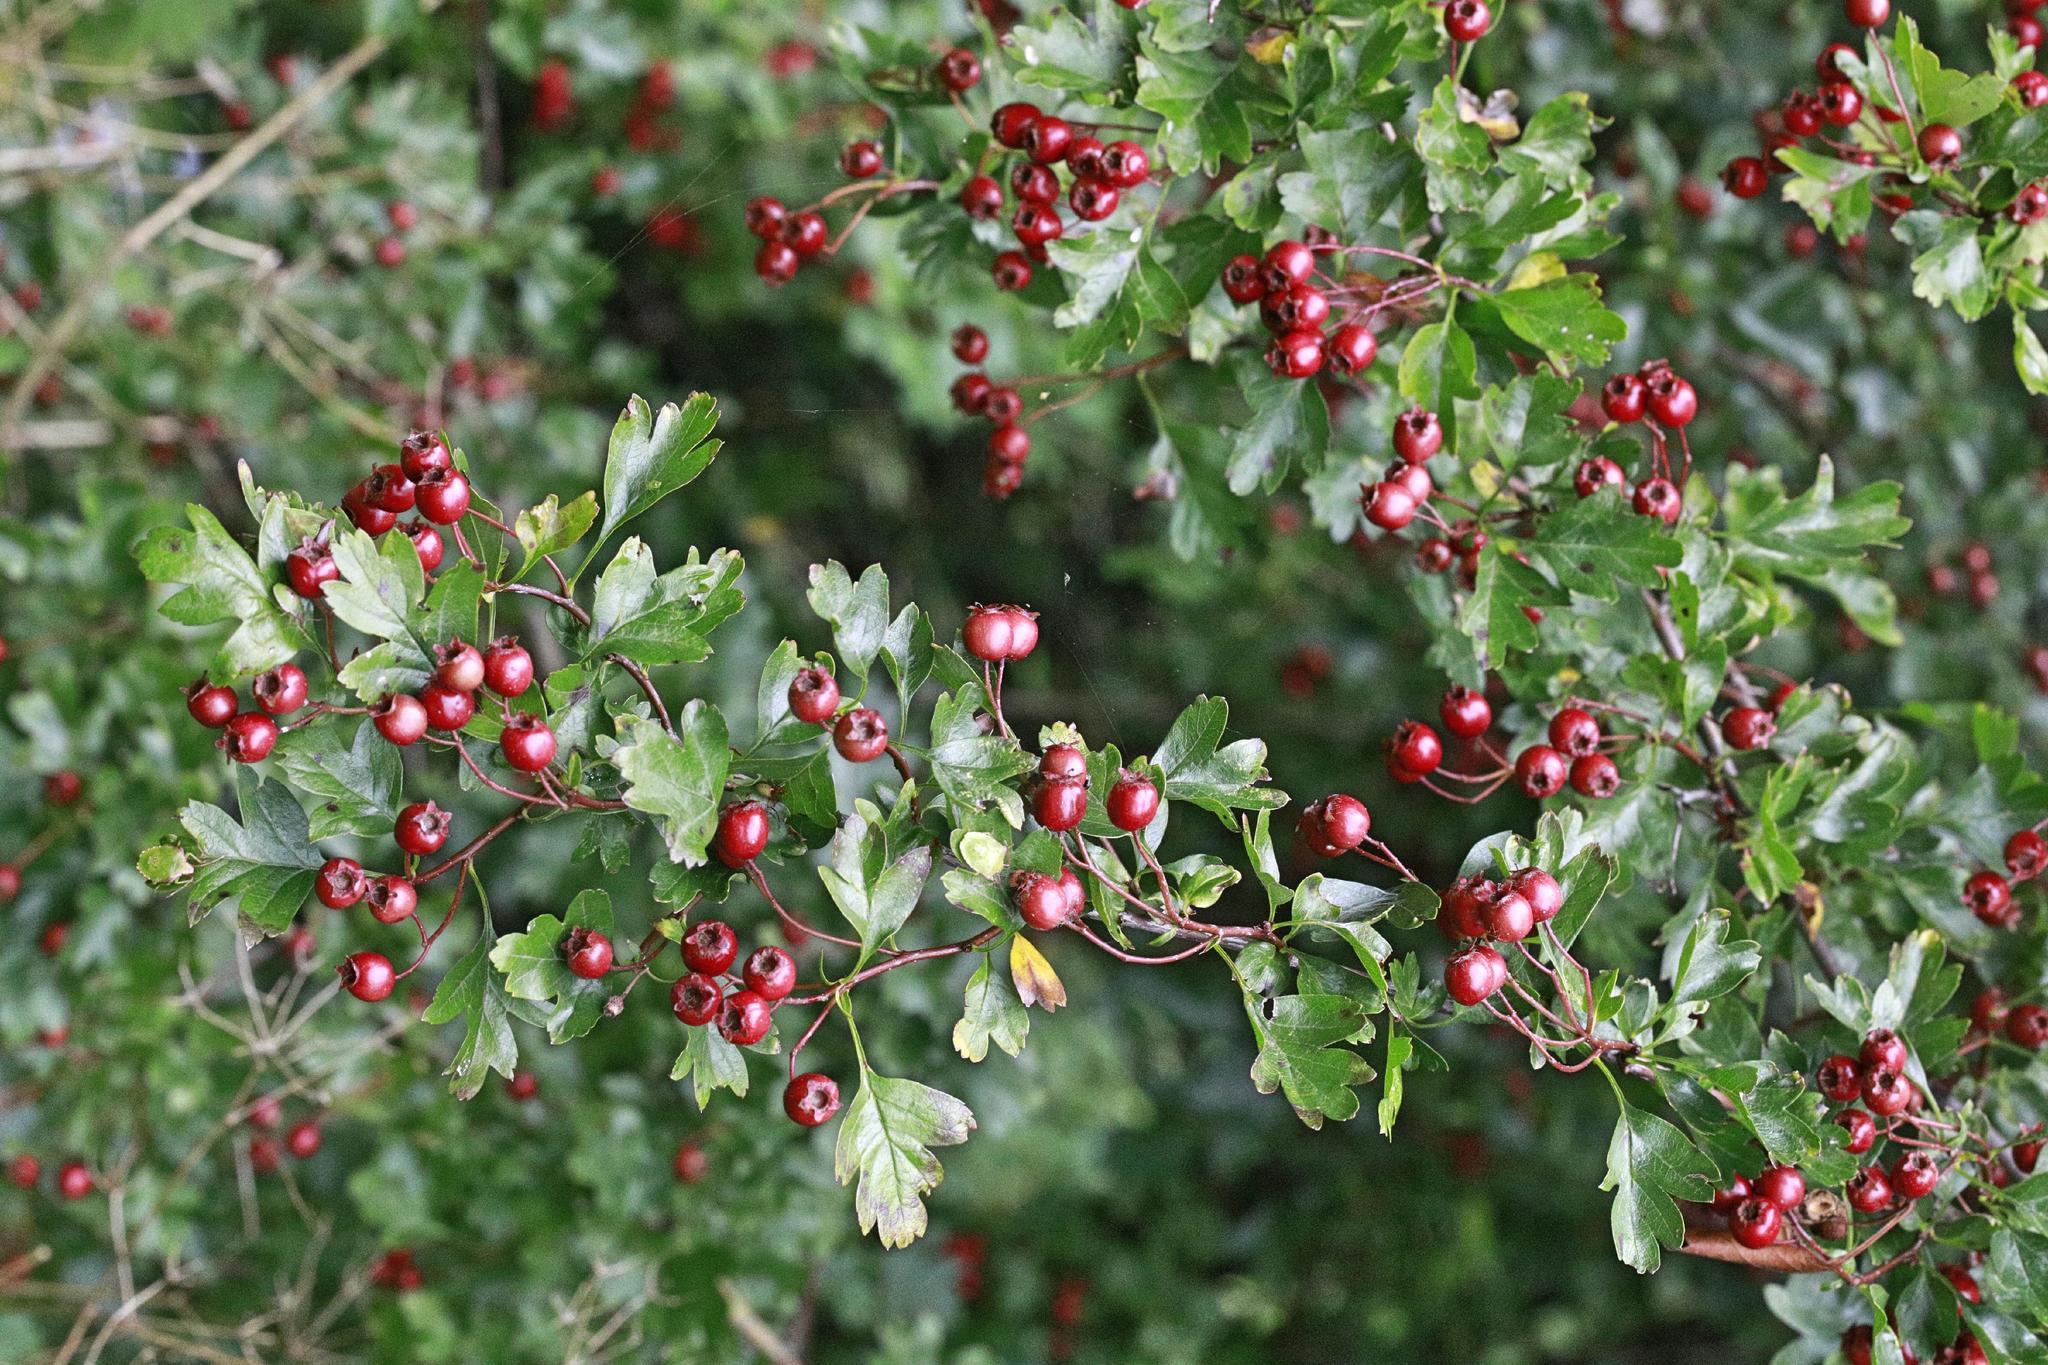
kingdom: Plantae
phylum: Tracheophyta
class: Magnoliopsida
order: Rosales
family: Rosaceae
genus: Crataegus
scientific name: Crataegus monogyna
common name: Hawthorn
